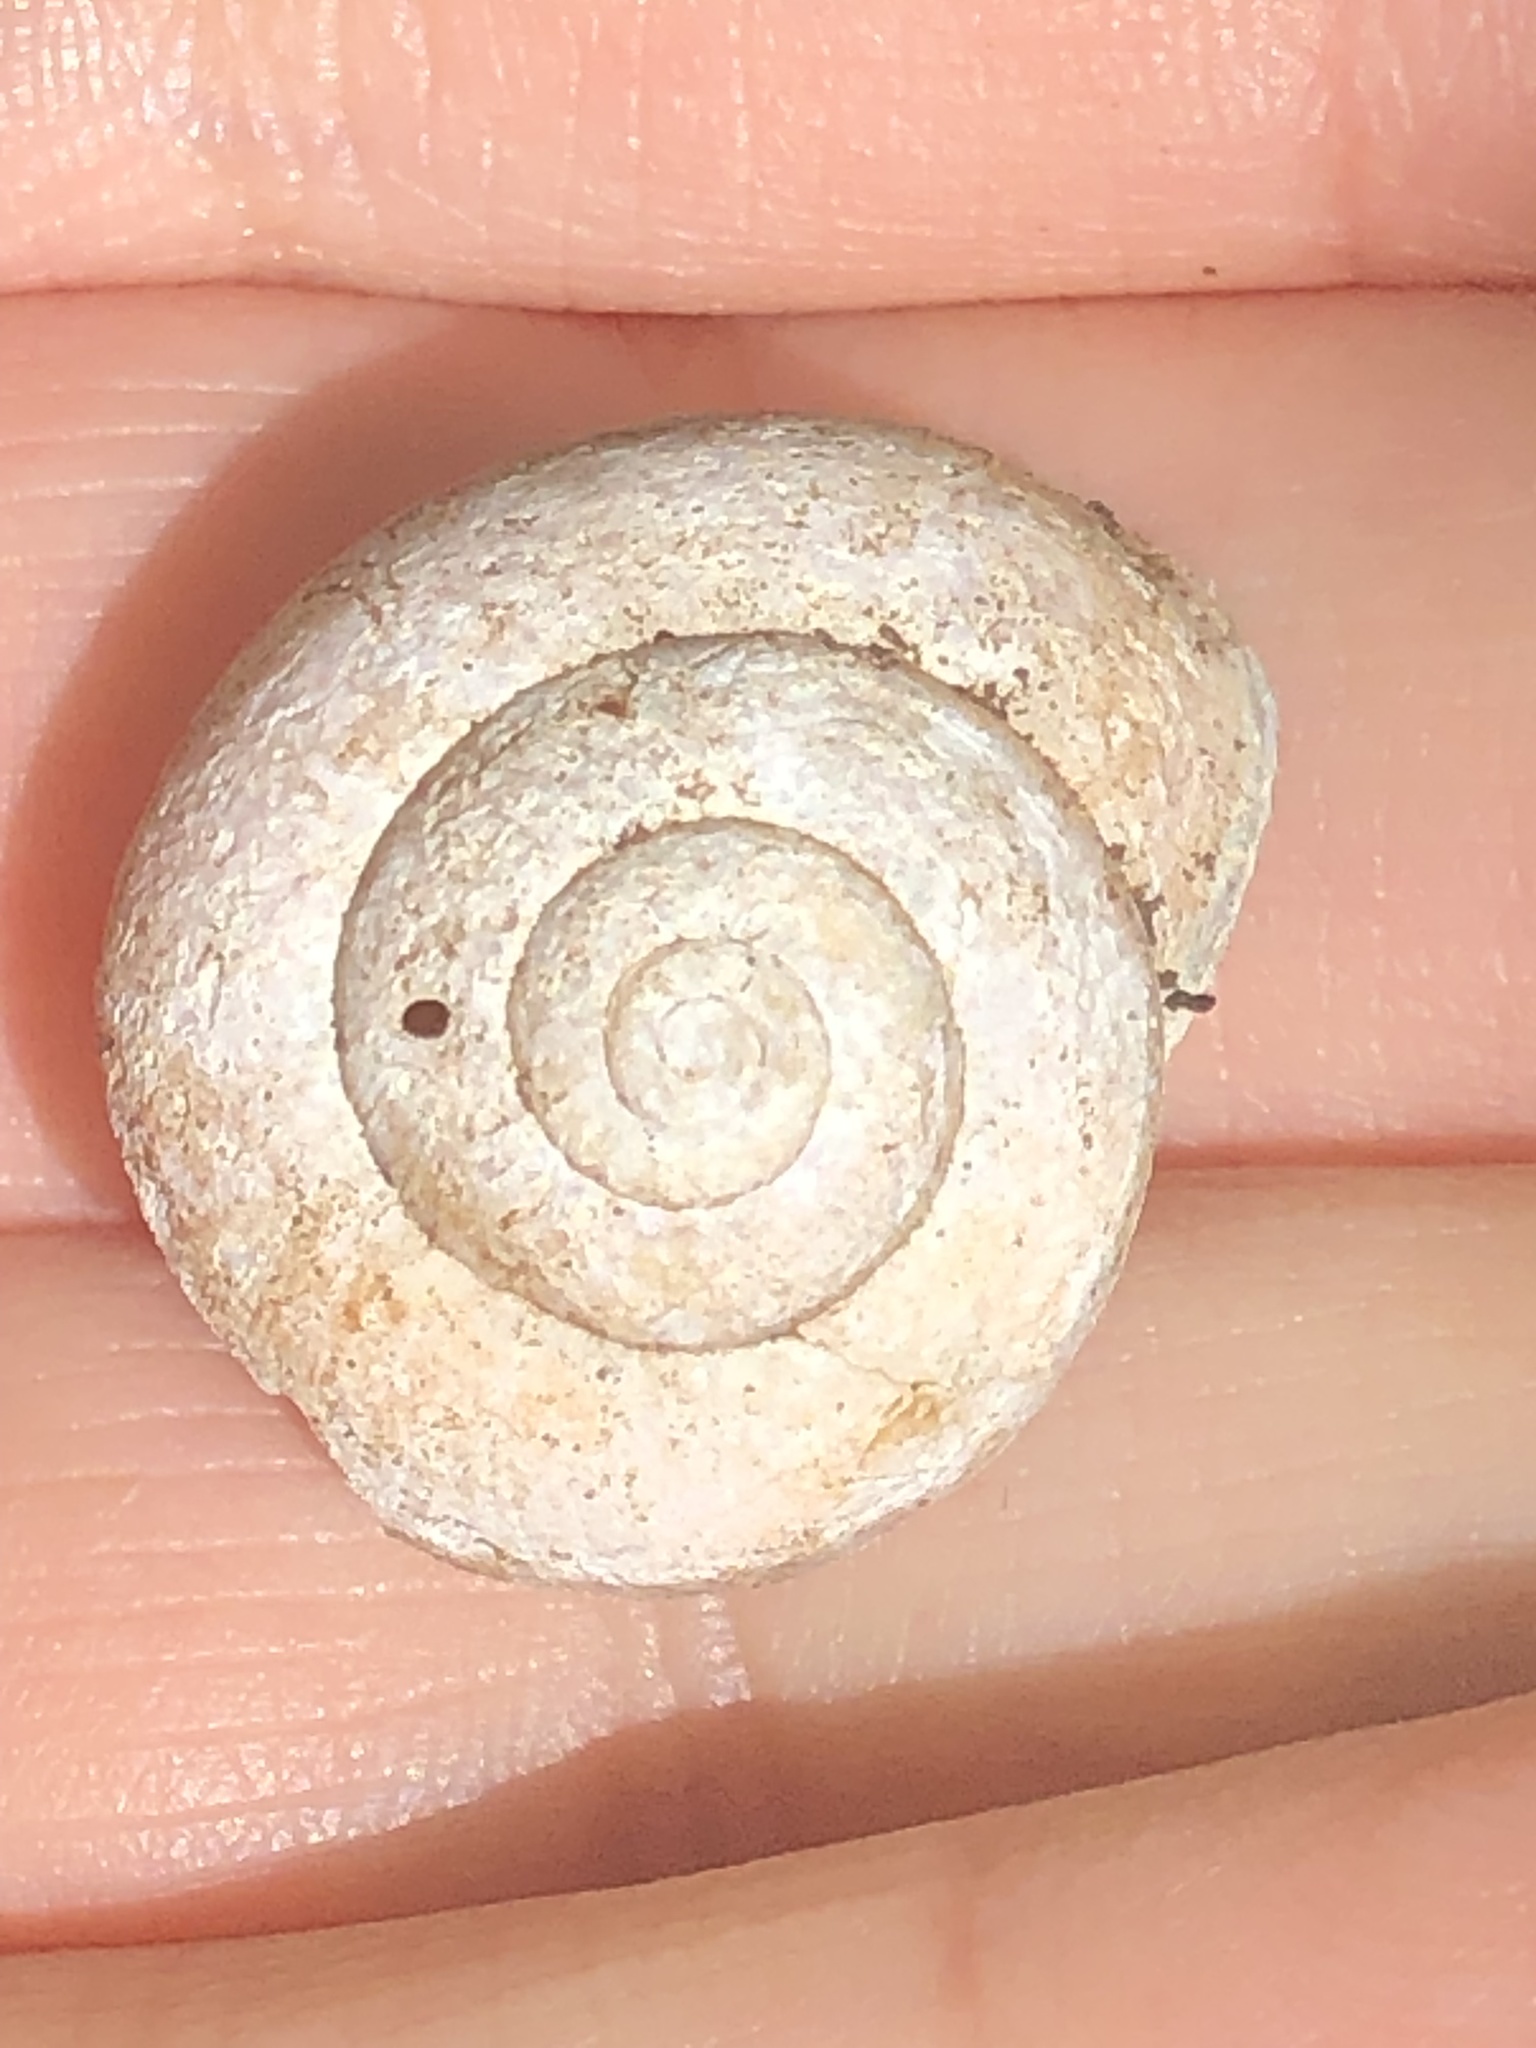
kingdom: Animalia
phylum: Mollusca
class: Gastropoda
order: Stylommatophora
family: Polygyridae
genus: Mesodon
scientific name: Mesodon thyroidus
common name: White-lip globe
